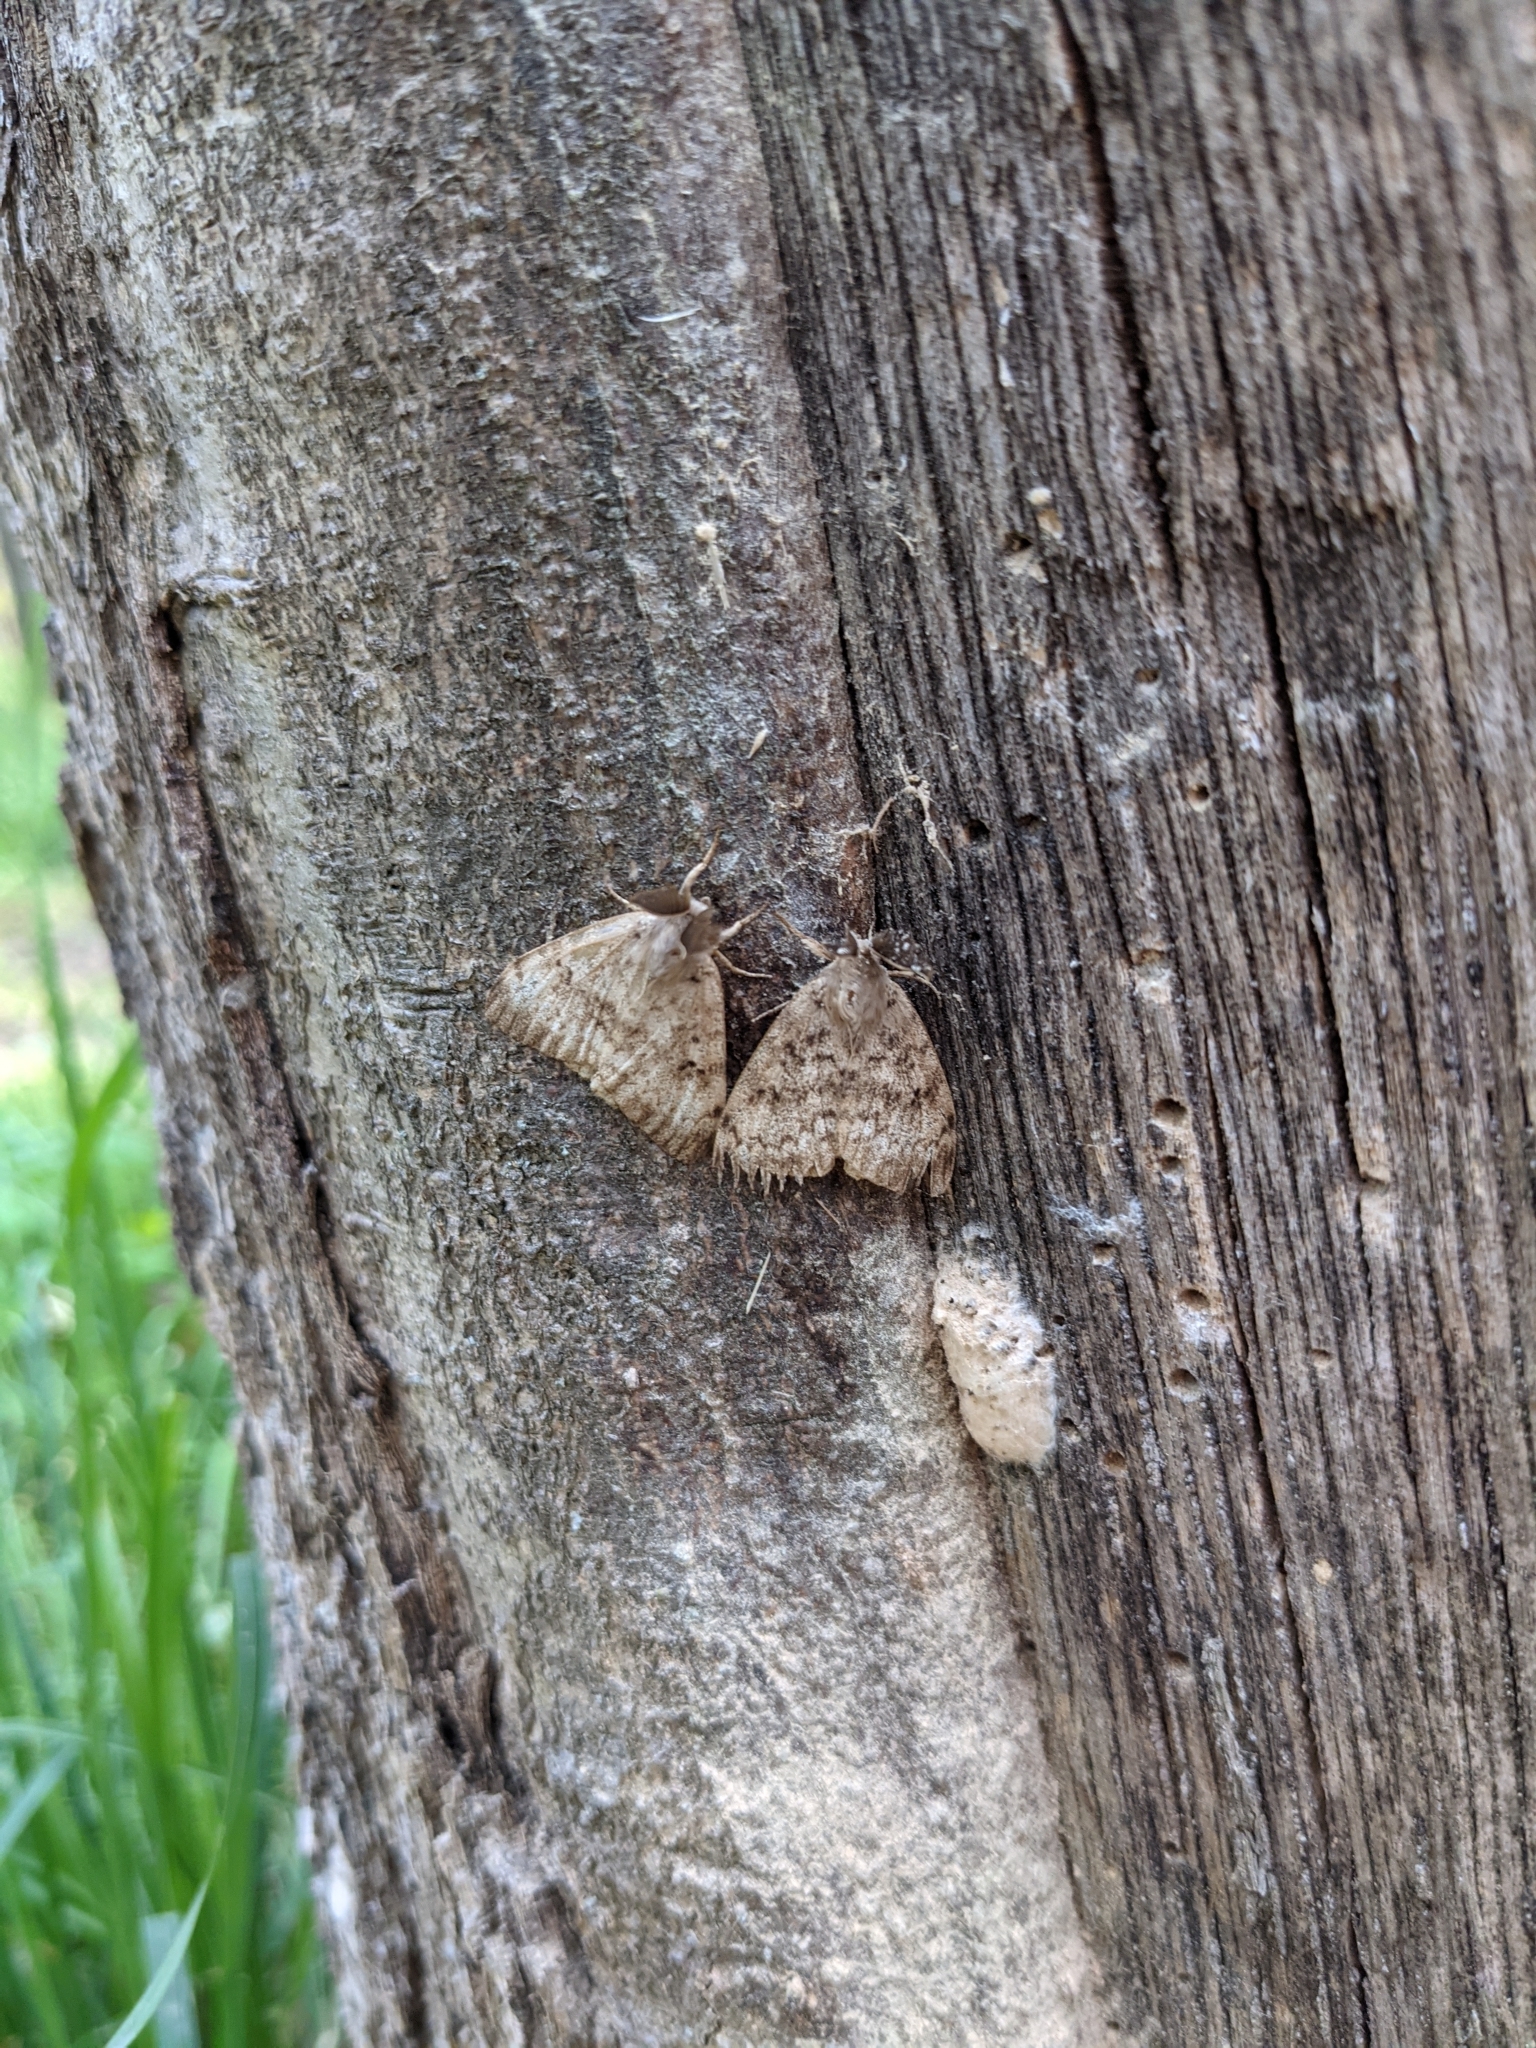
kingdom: Animalia
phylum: Arthropoda
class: Insecta
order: Lepidoptera
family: Erebidae
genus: Lymantria
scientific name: Lymantria dispar
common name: Gypsy moth
